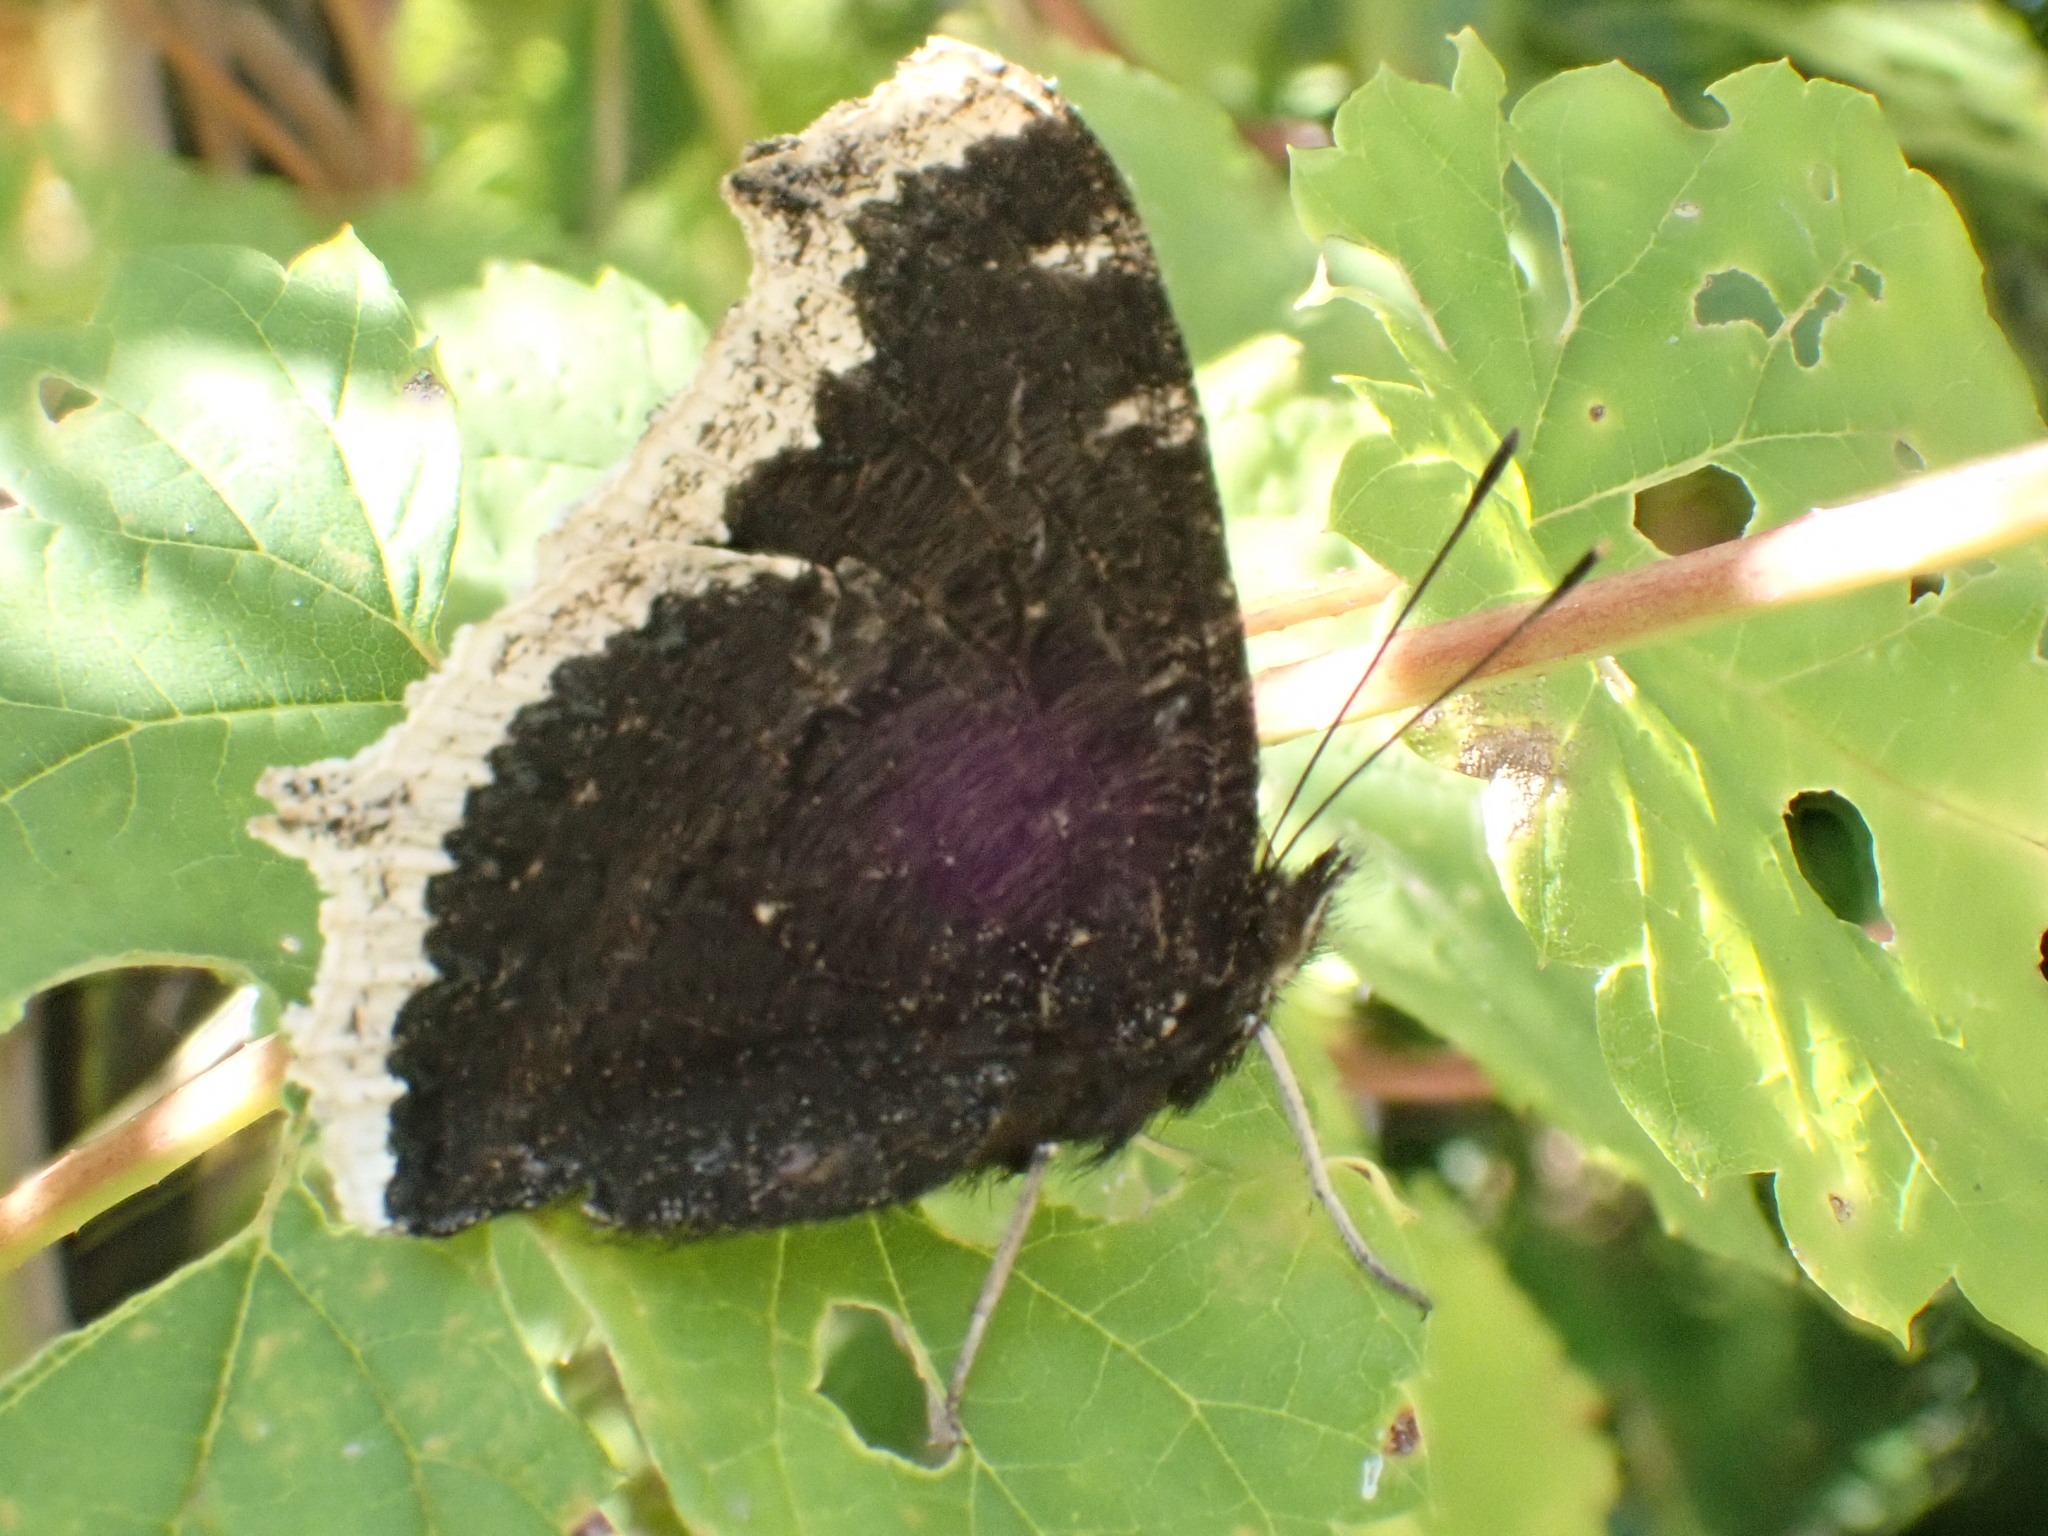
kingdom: Animalia
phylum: Arthropoda
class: Insecta
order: Lepidoptera
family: Nymphalidae
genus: Nymphalis
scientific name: Nymphalis antiopa
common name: Camberwell beauty
